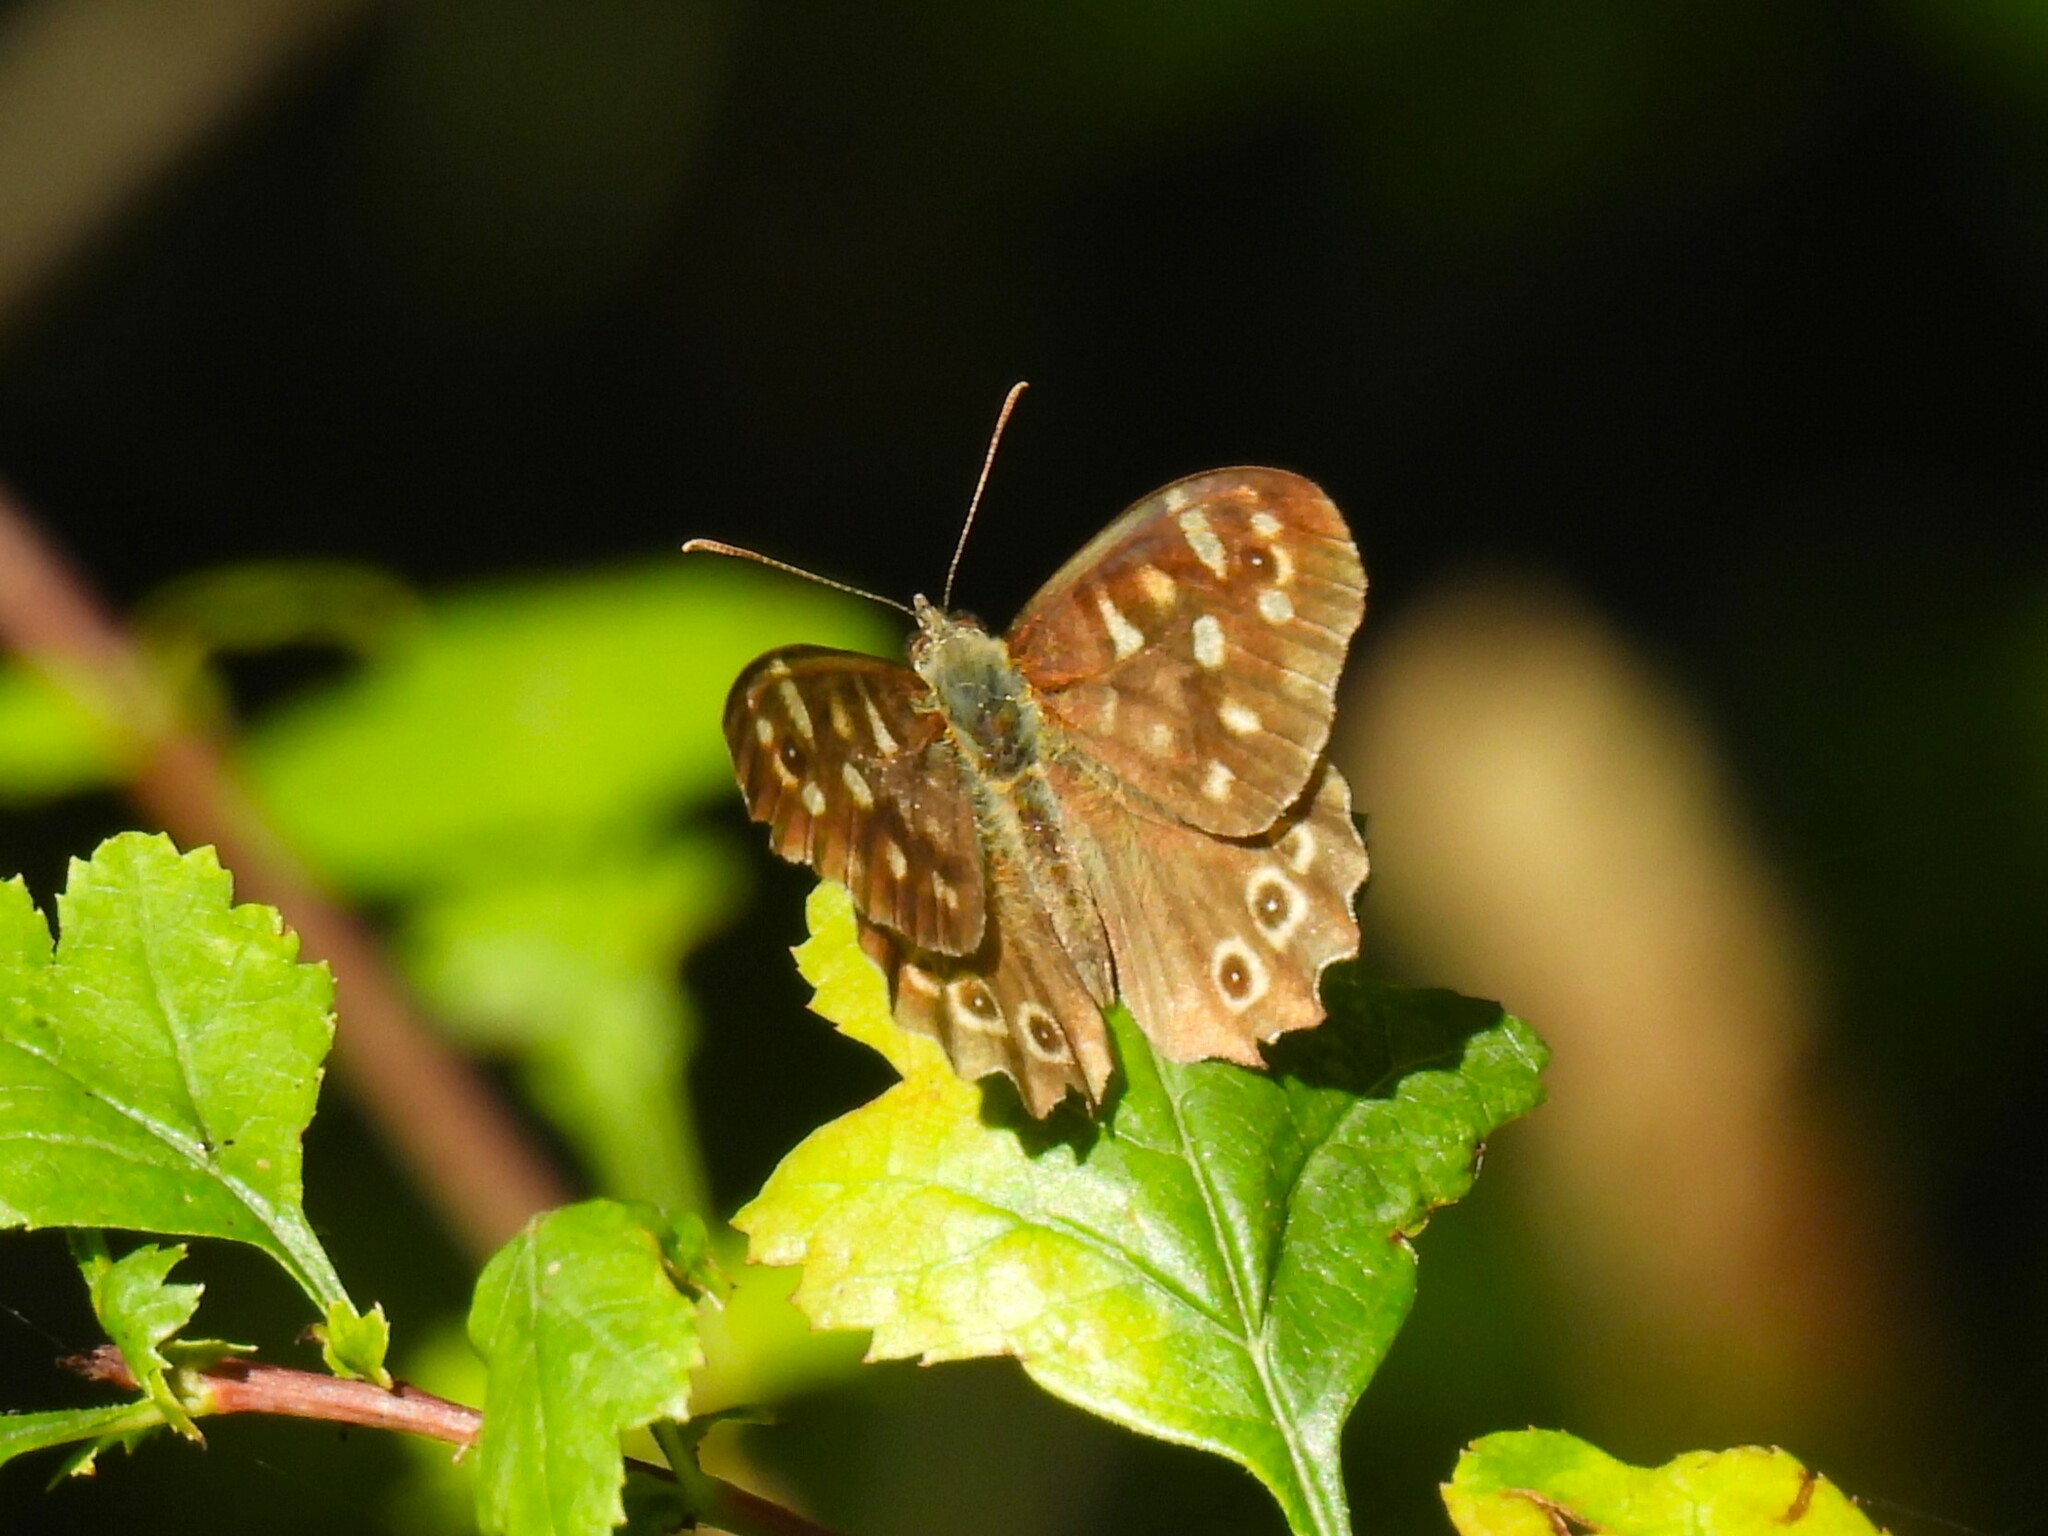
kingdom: Animalia
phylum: Arthropoda
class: Insecta
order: Lepidoptera
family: Nymphalidae
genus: Pararge
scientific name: Pararge aegeria
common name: Speckled wood
